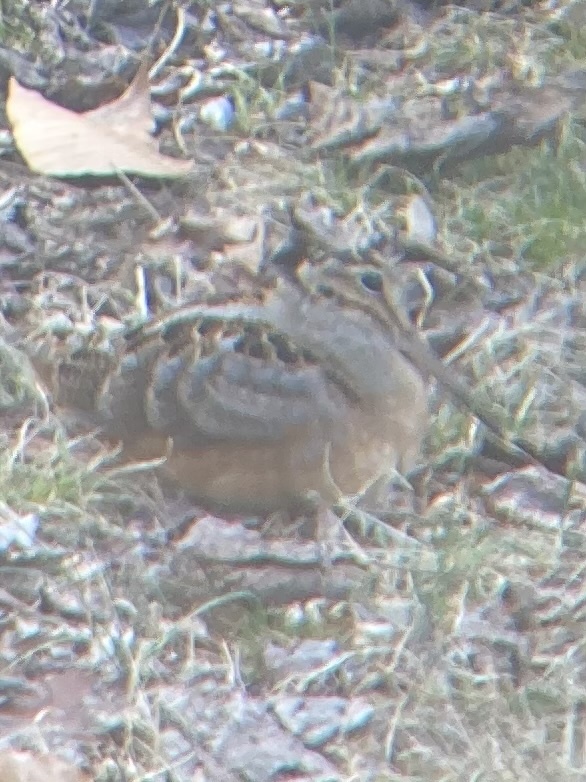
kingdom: Animalia
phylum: Chordata
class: Aves
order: Charadriiformes
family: Scolopacidae
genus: Scolopax
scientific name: Scolopax minor
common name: American woodcock
